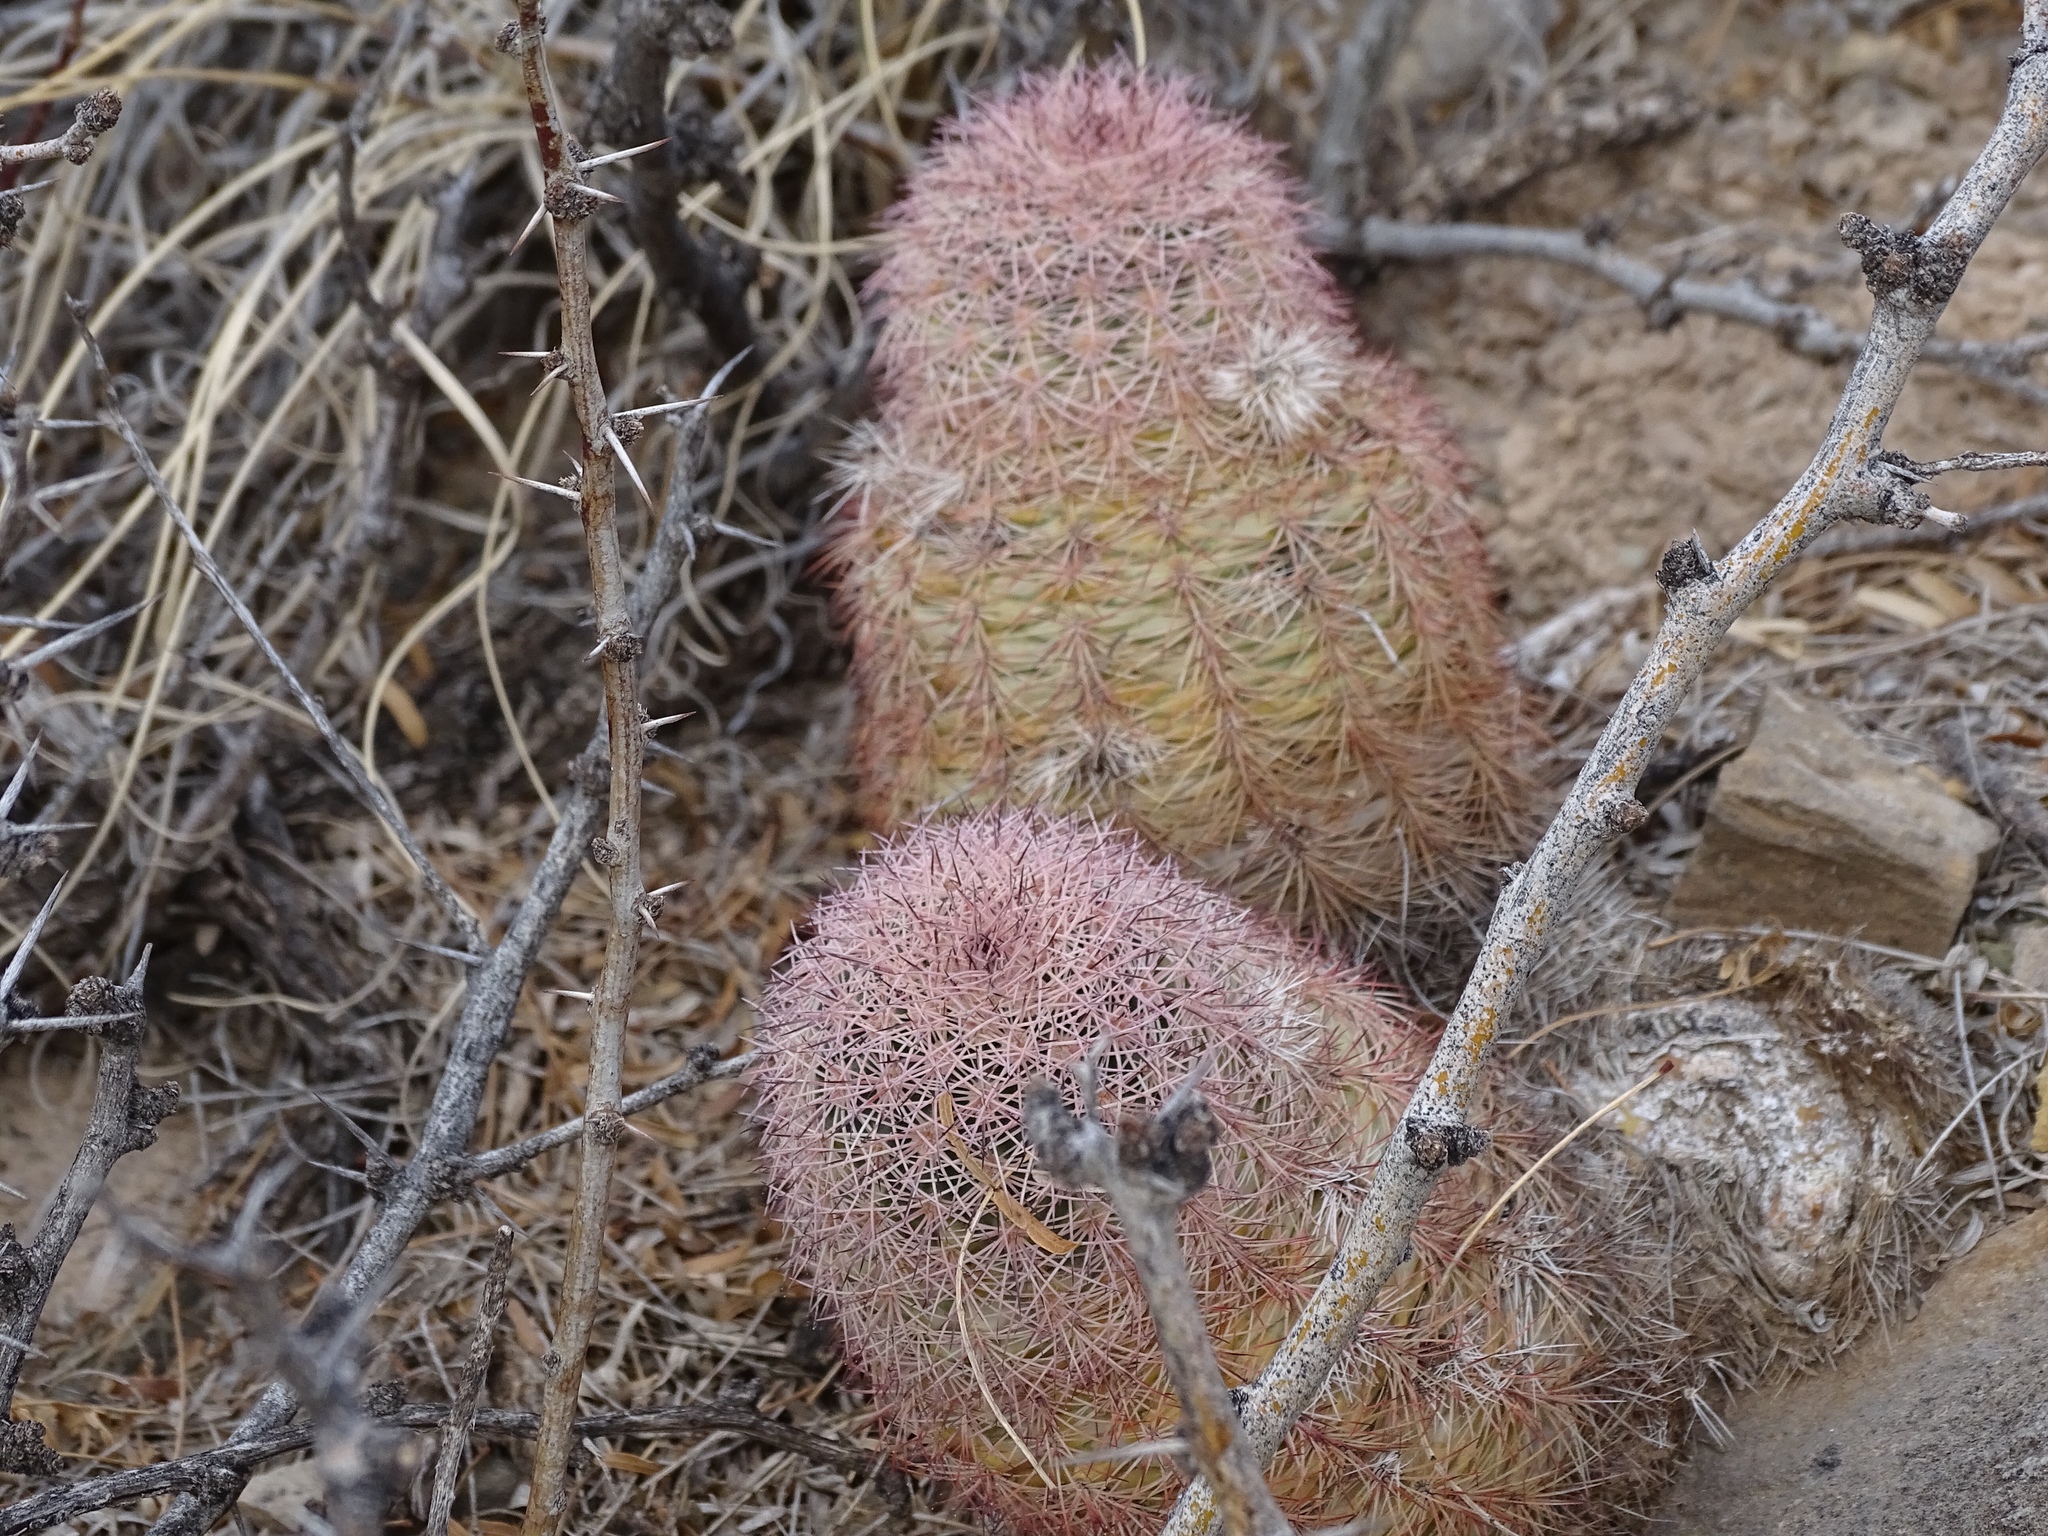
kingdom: Plantae
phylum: Tracheophyta
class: Magnoliopsida
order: Caryophyllales
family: Cactaceae
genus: Echinocereus
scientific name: Echinocereus dasyacanthus
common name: Spiny hedgehog cactus
